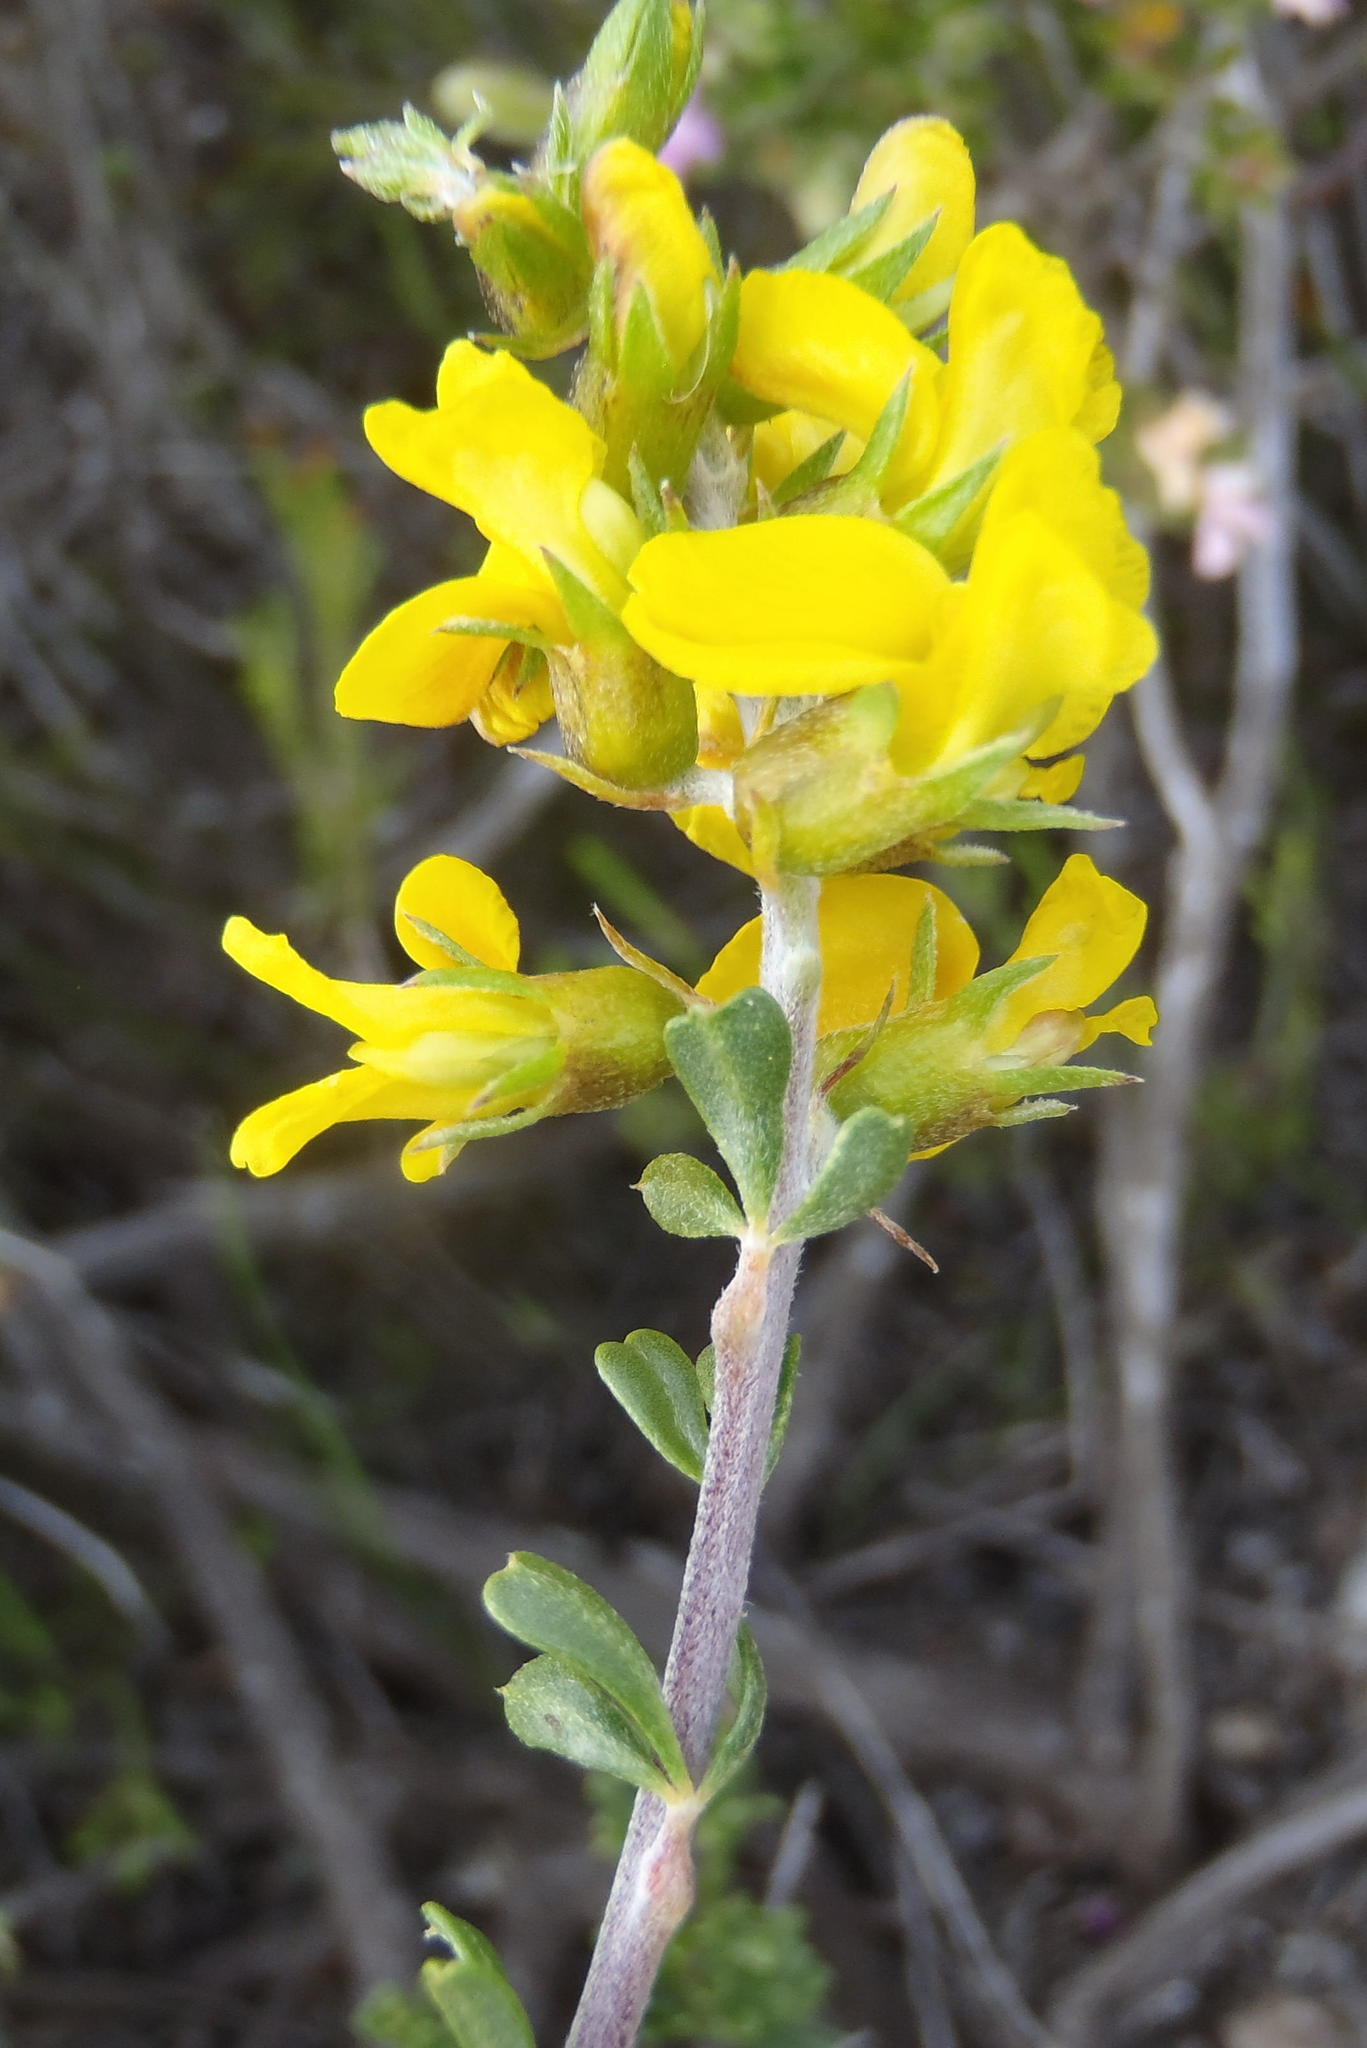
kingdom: Plantae
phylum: Tracheophyta
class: Magnoliopsida
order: Fabales
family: Fabaceae
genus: Wiborgiella
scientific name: Wiborgiella sessilifolia
